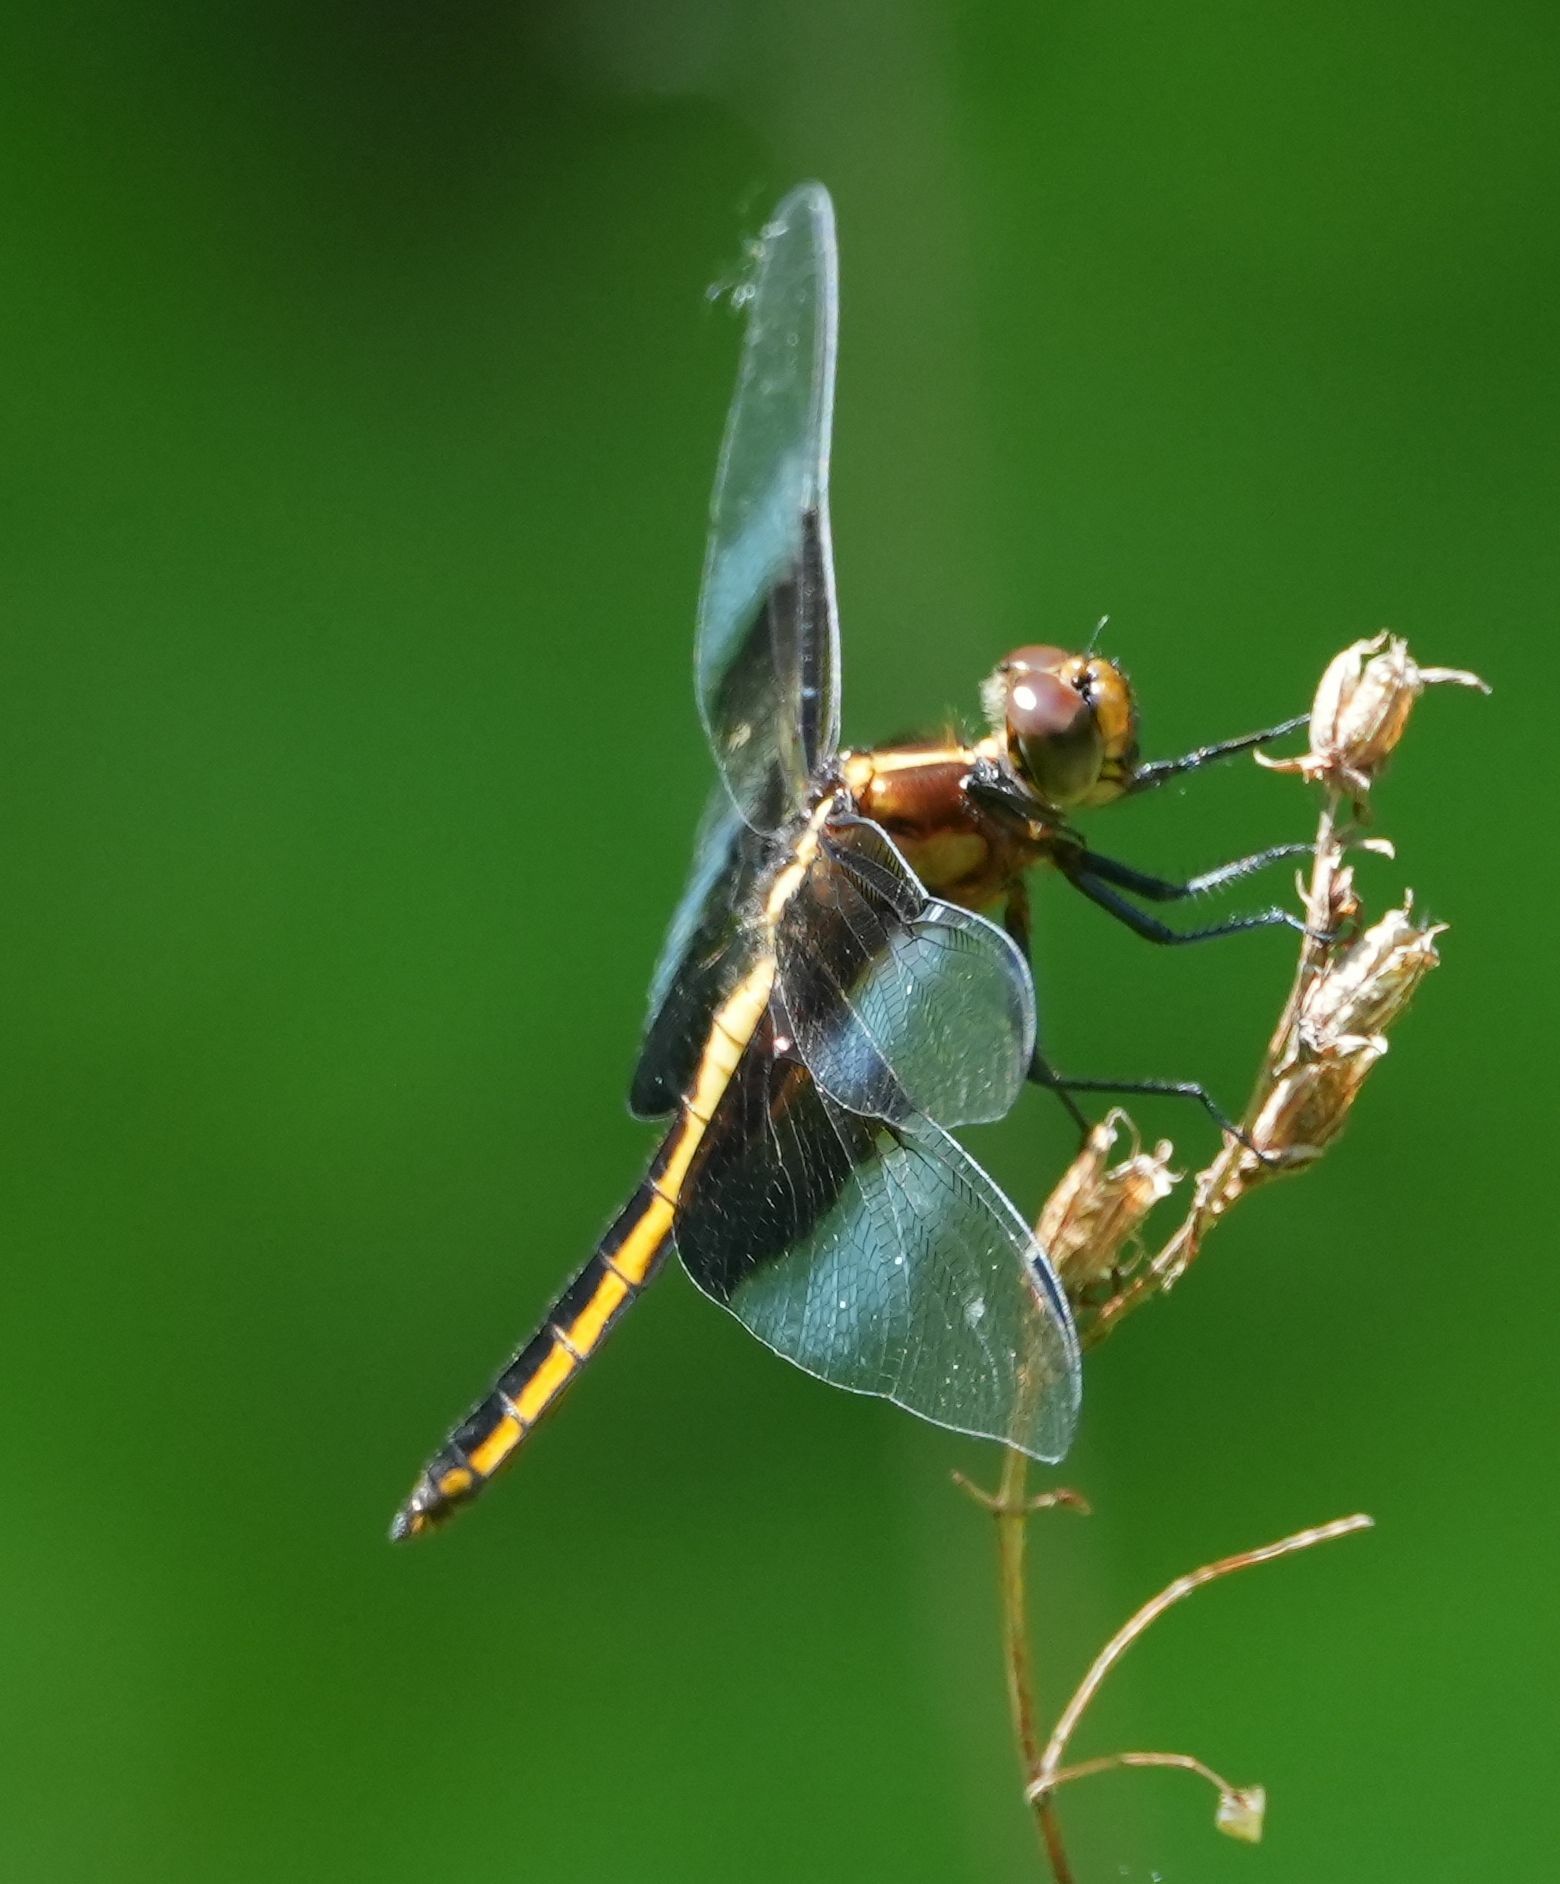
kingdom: Animalia
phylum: Arthropoda
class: Insecta
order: Odonata
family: Libellulidae
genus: Libellula
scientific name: Libellula luctuosa
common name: Widow skimmer
